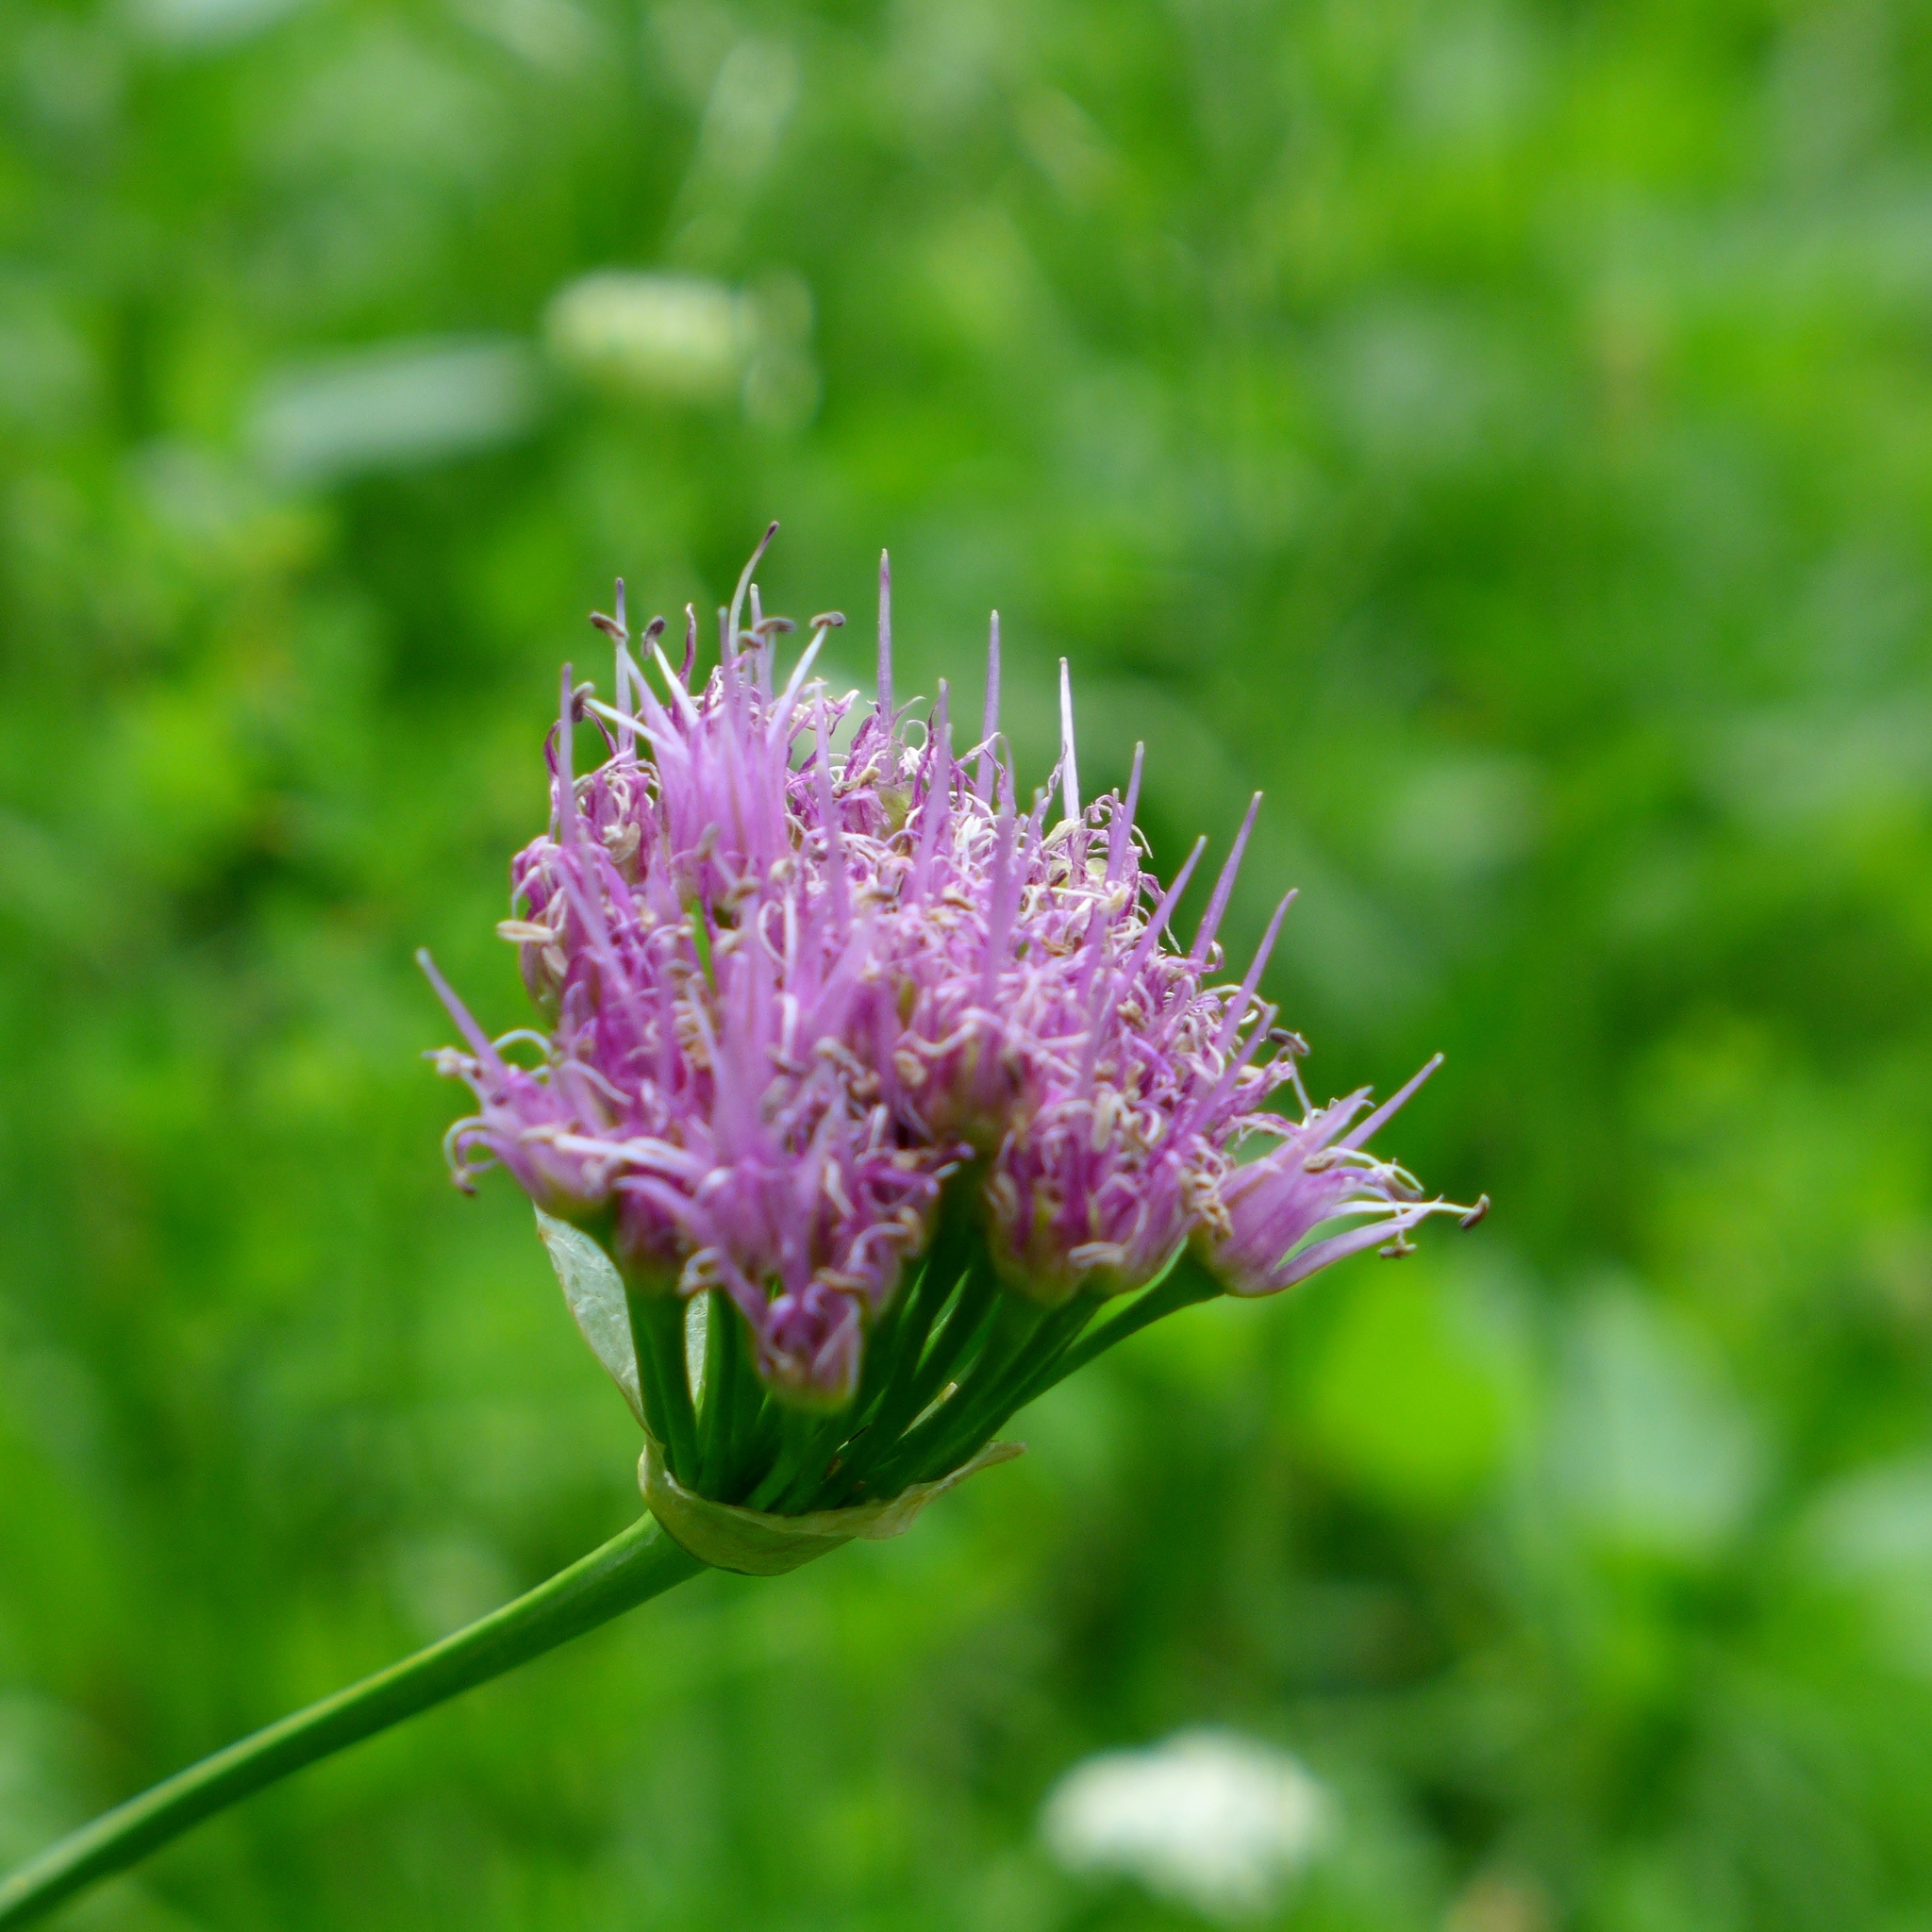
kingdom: Plantae
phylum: Tracheophyta
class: Liliopsida
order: Asparagales
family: Amaryllidaceae
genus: Allium
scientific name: Allium validum
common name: Pacific mountain onion
